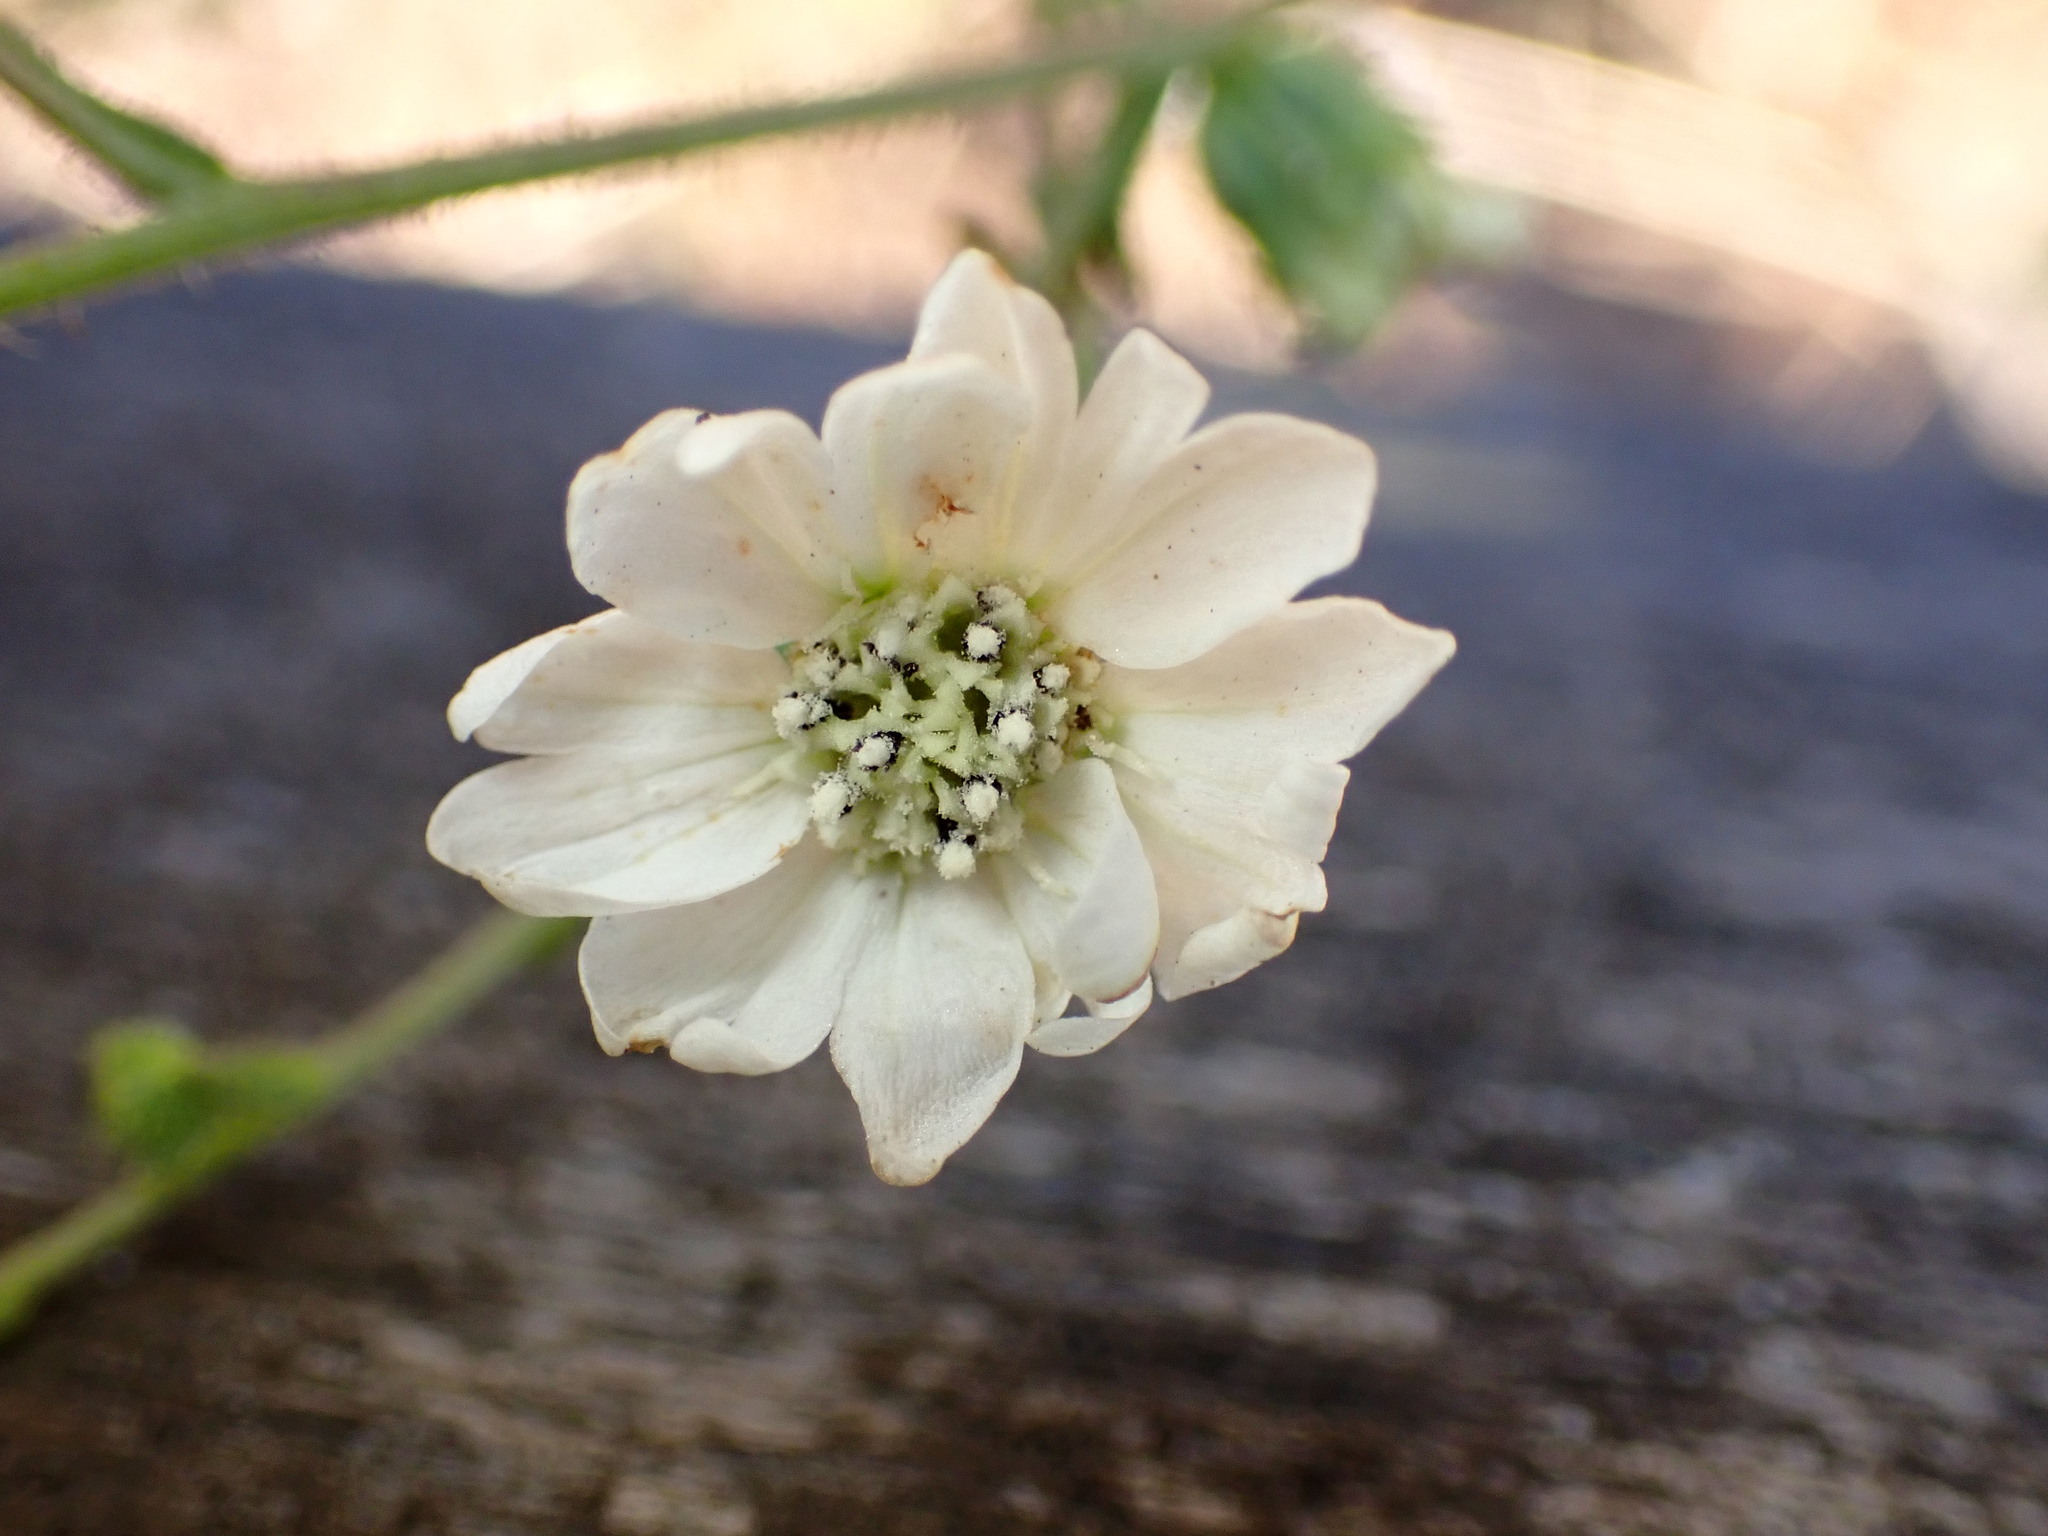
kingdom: Plantae
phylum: Tracheophyta
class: Magnoliopsida
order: Asterales
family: Asteraceae
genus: Hemizonia
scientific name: Hemizonia congesta
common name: Hayfield tarweed
